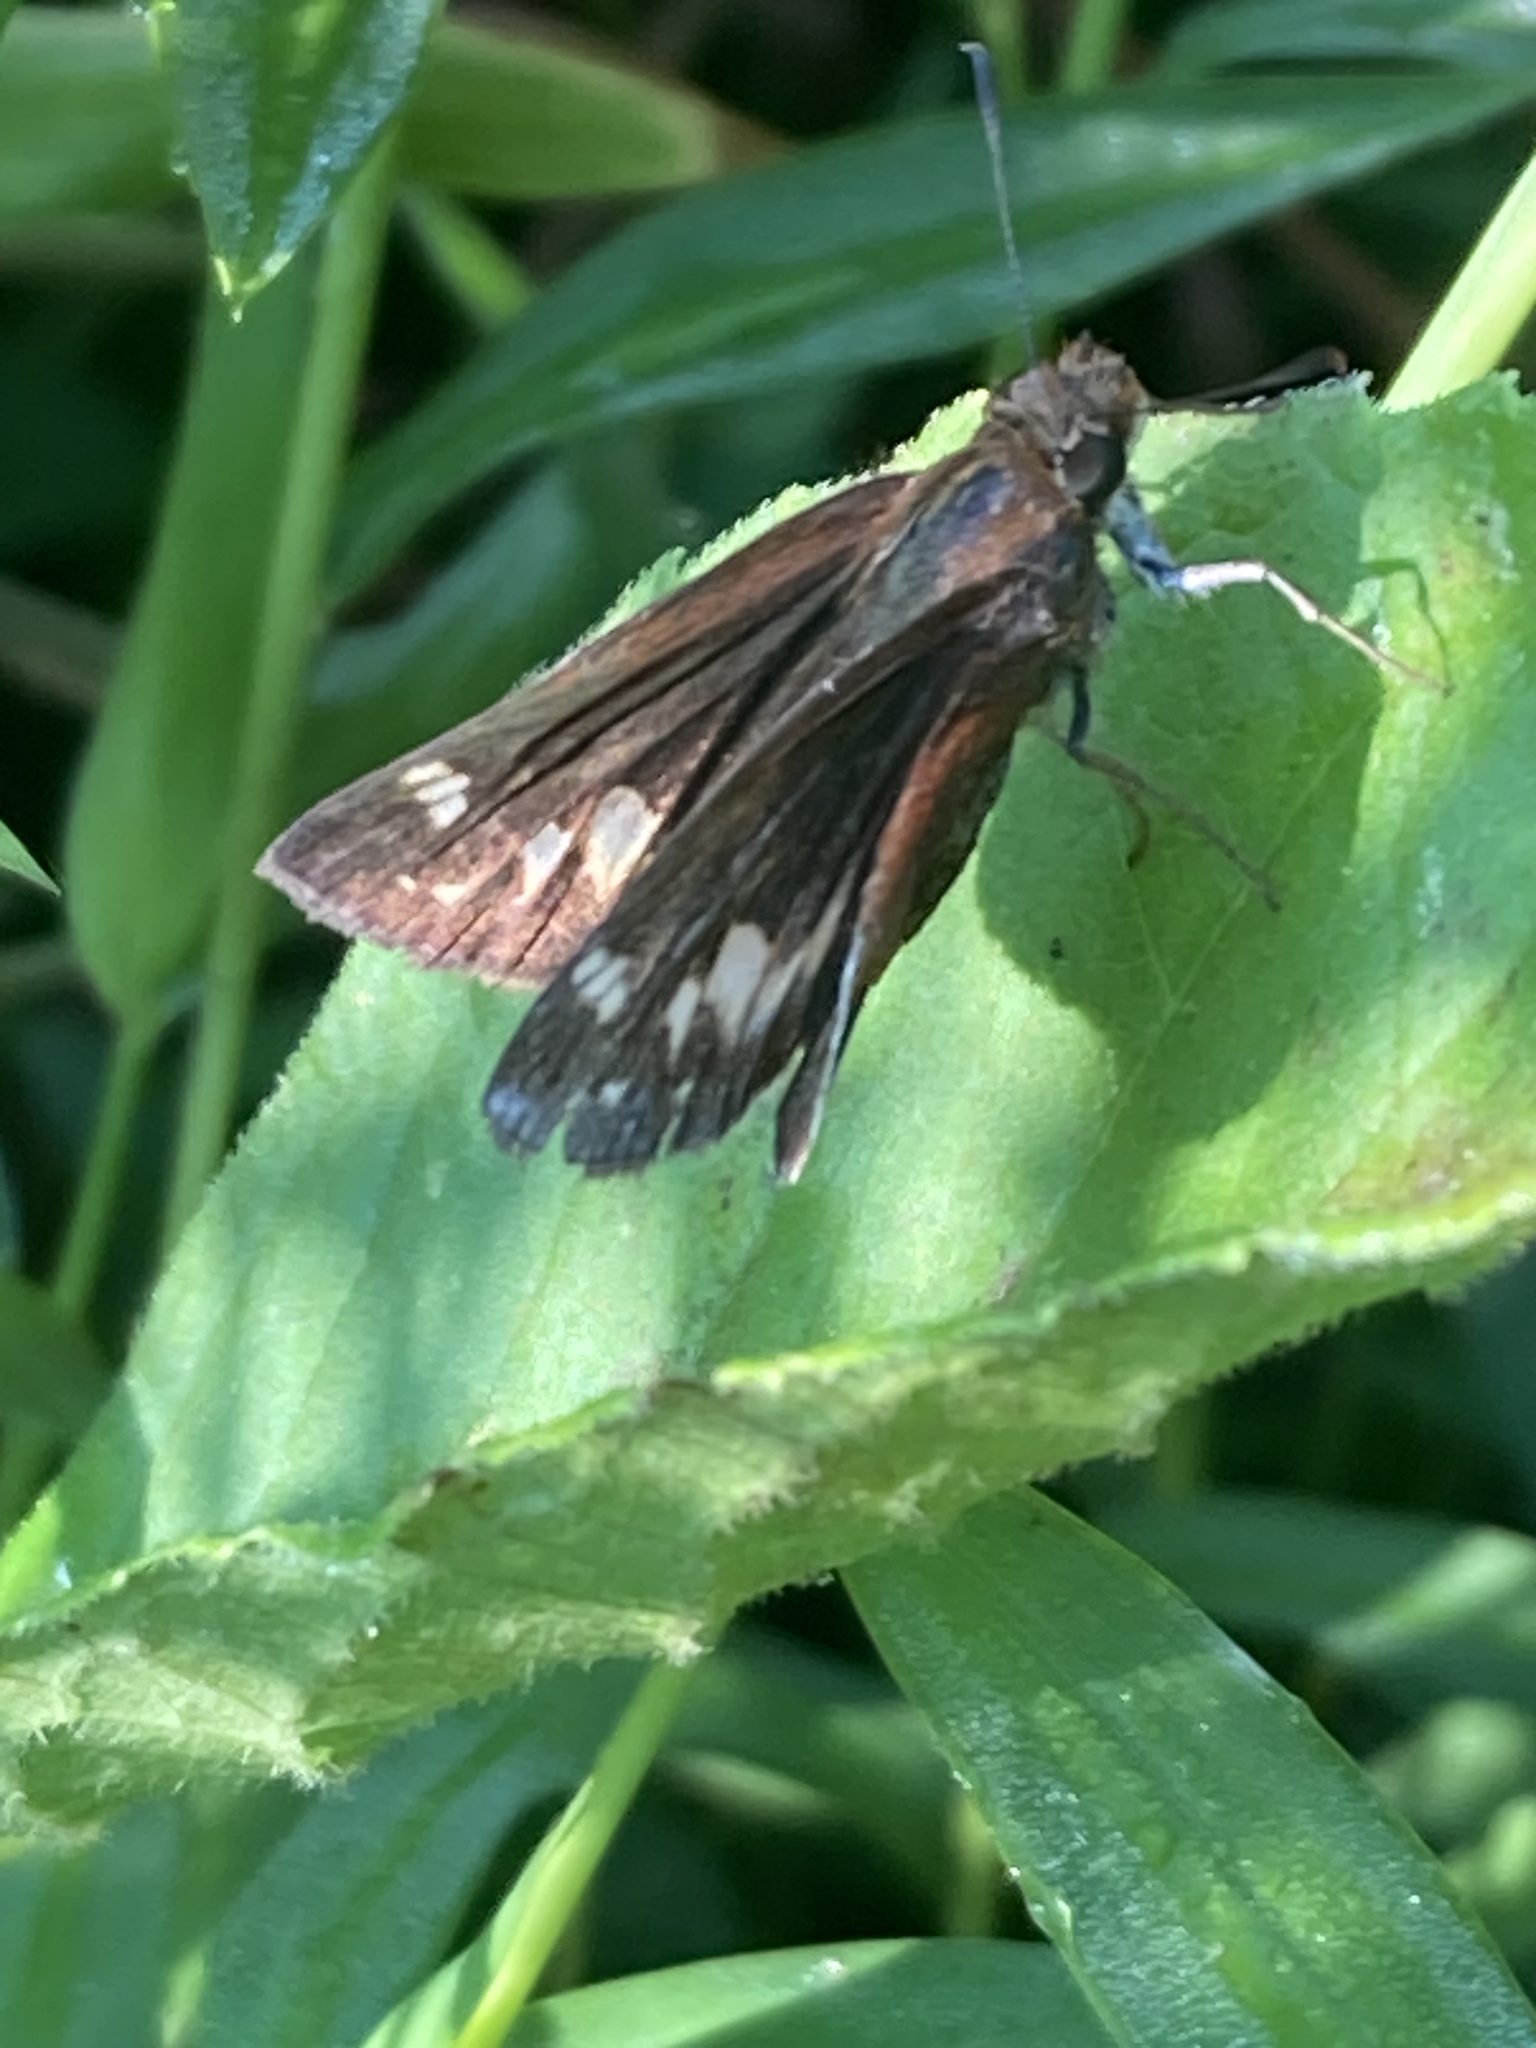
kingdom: Animalia
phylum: Arthropoda
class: Insecta
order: Lepidoptera
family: Hesperiidae
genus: Lon
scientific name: Lon zabulon
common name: Zabulon skipper
